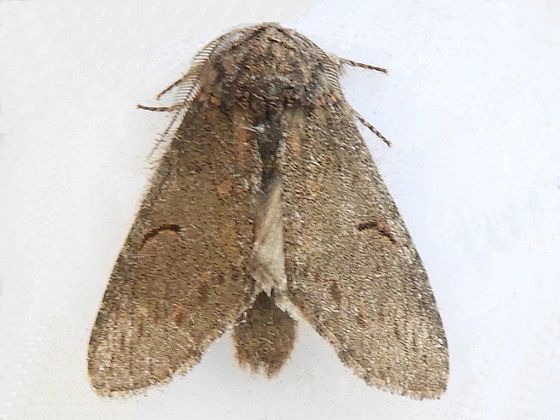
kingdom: Animalia
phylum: Arthropoda
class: Insecta
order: Lepidoptera
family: Notodontidae
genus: Disphragis
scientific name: Disphragis
